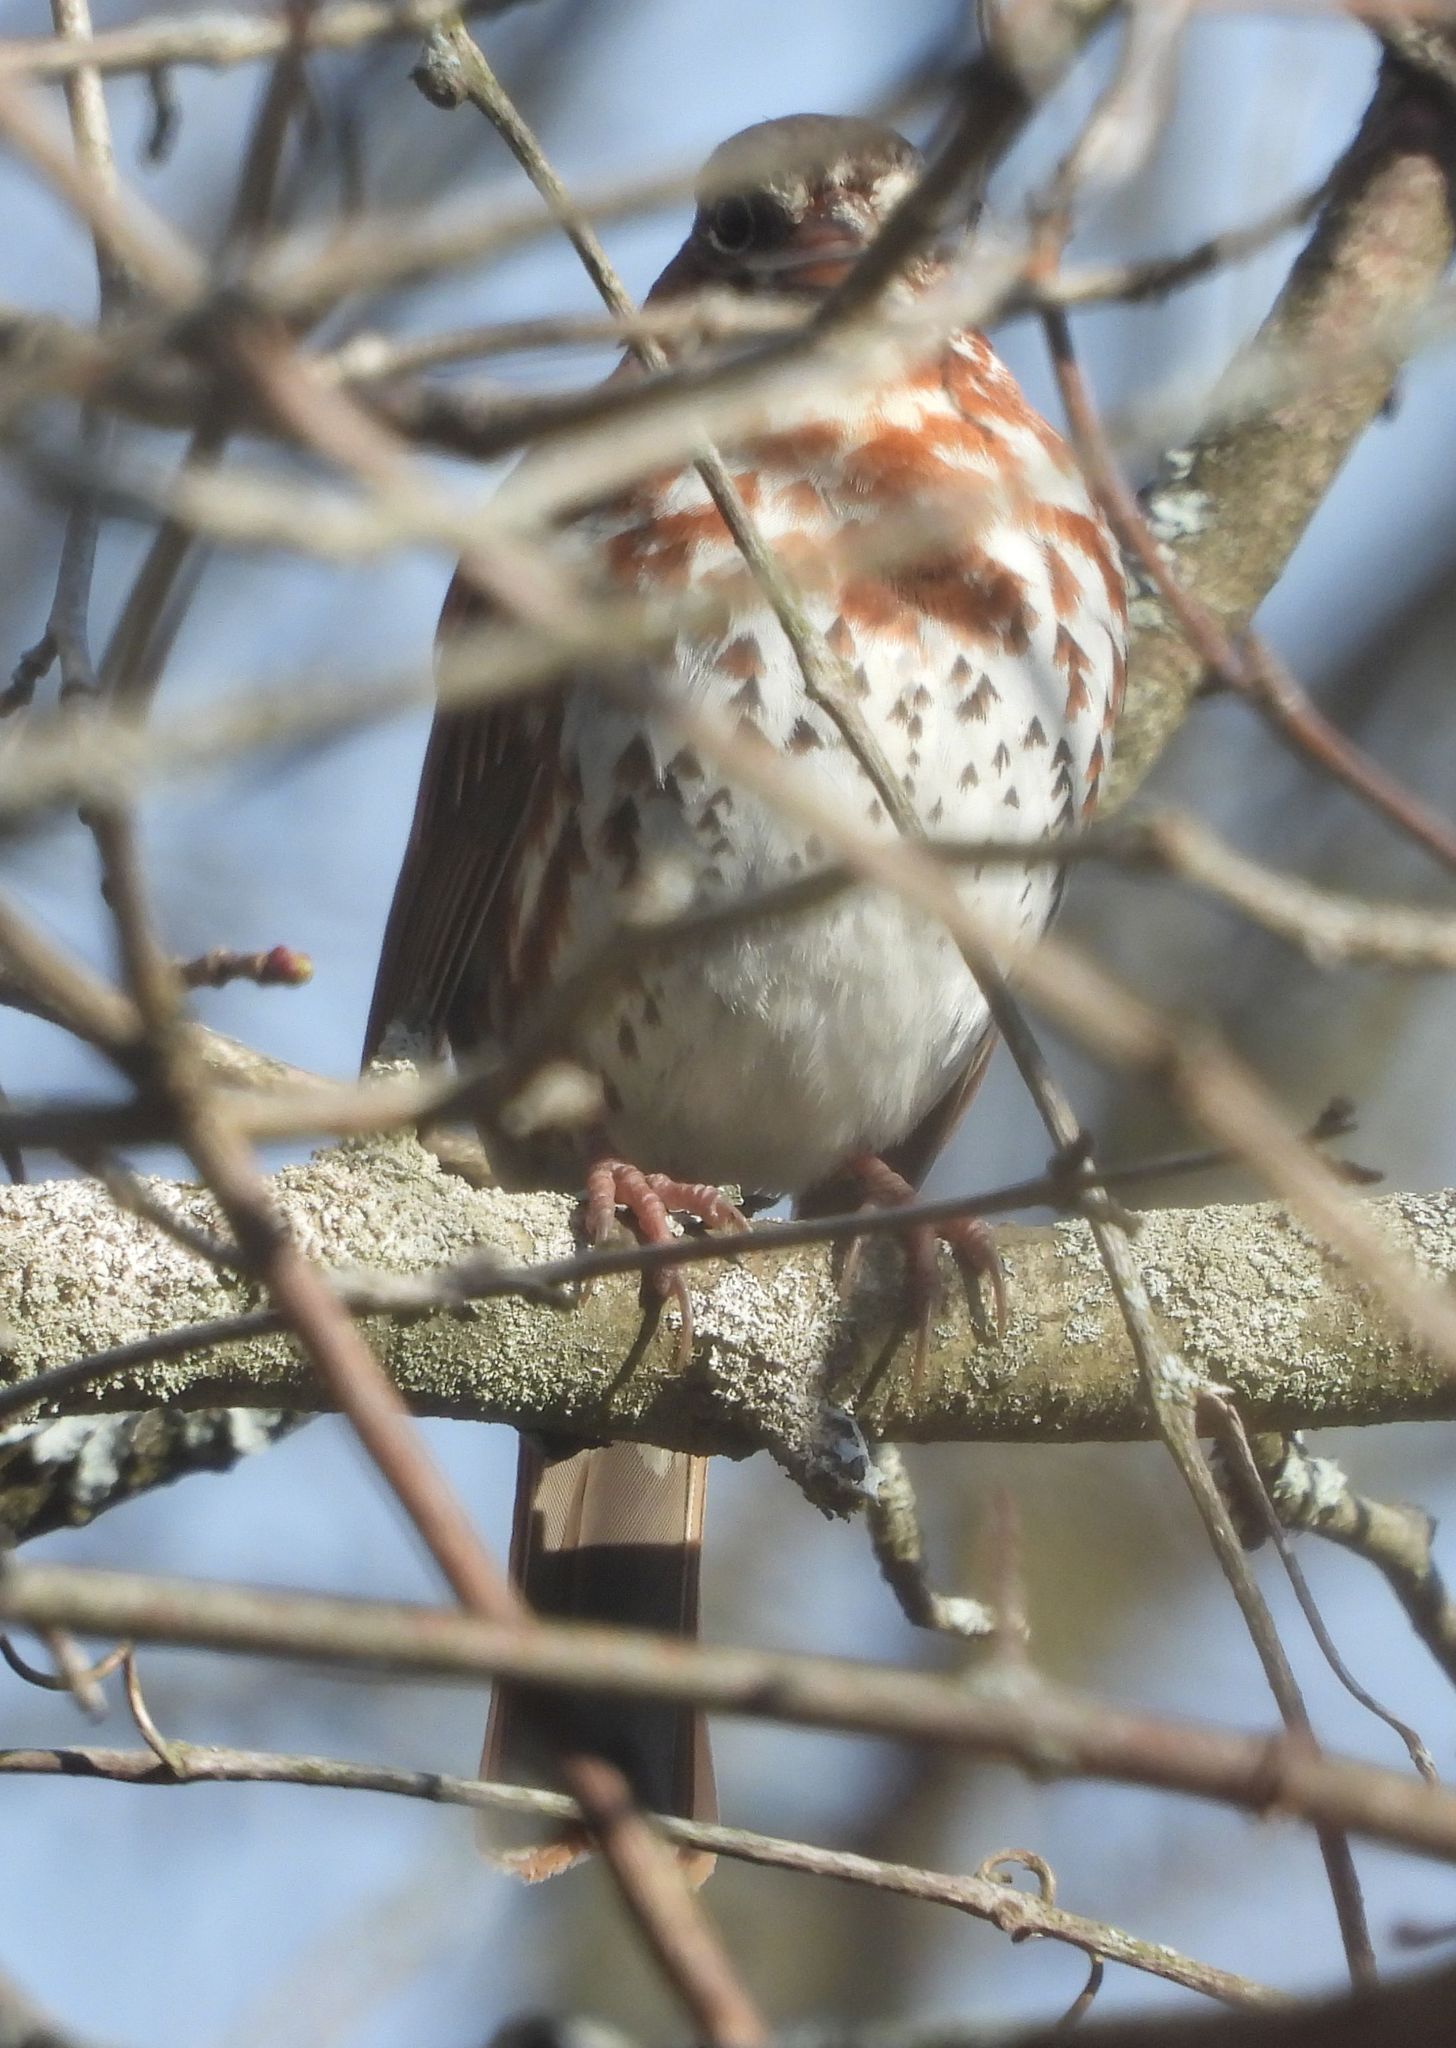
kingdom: Animalia
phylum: Chordata
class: Aves
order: Passeriformes
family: Passerellidae
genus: Passerella
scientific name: Passerella iliaca
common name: Fox sparrow
